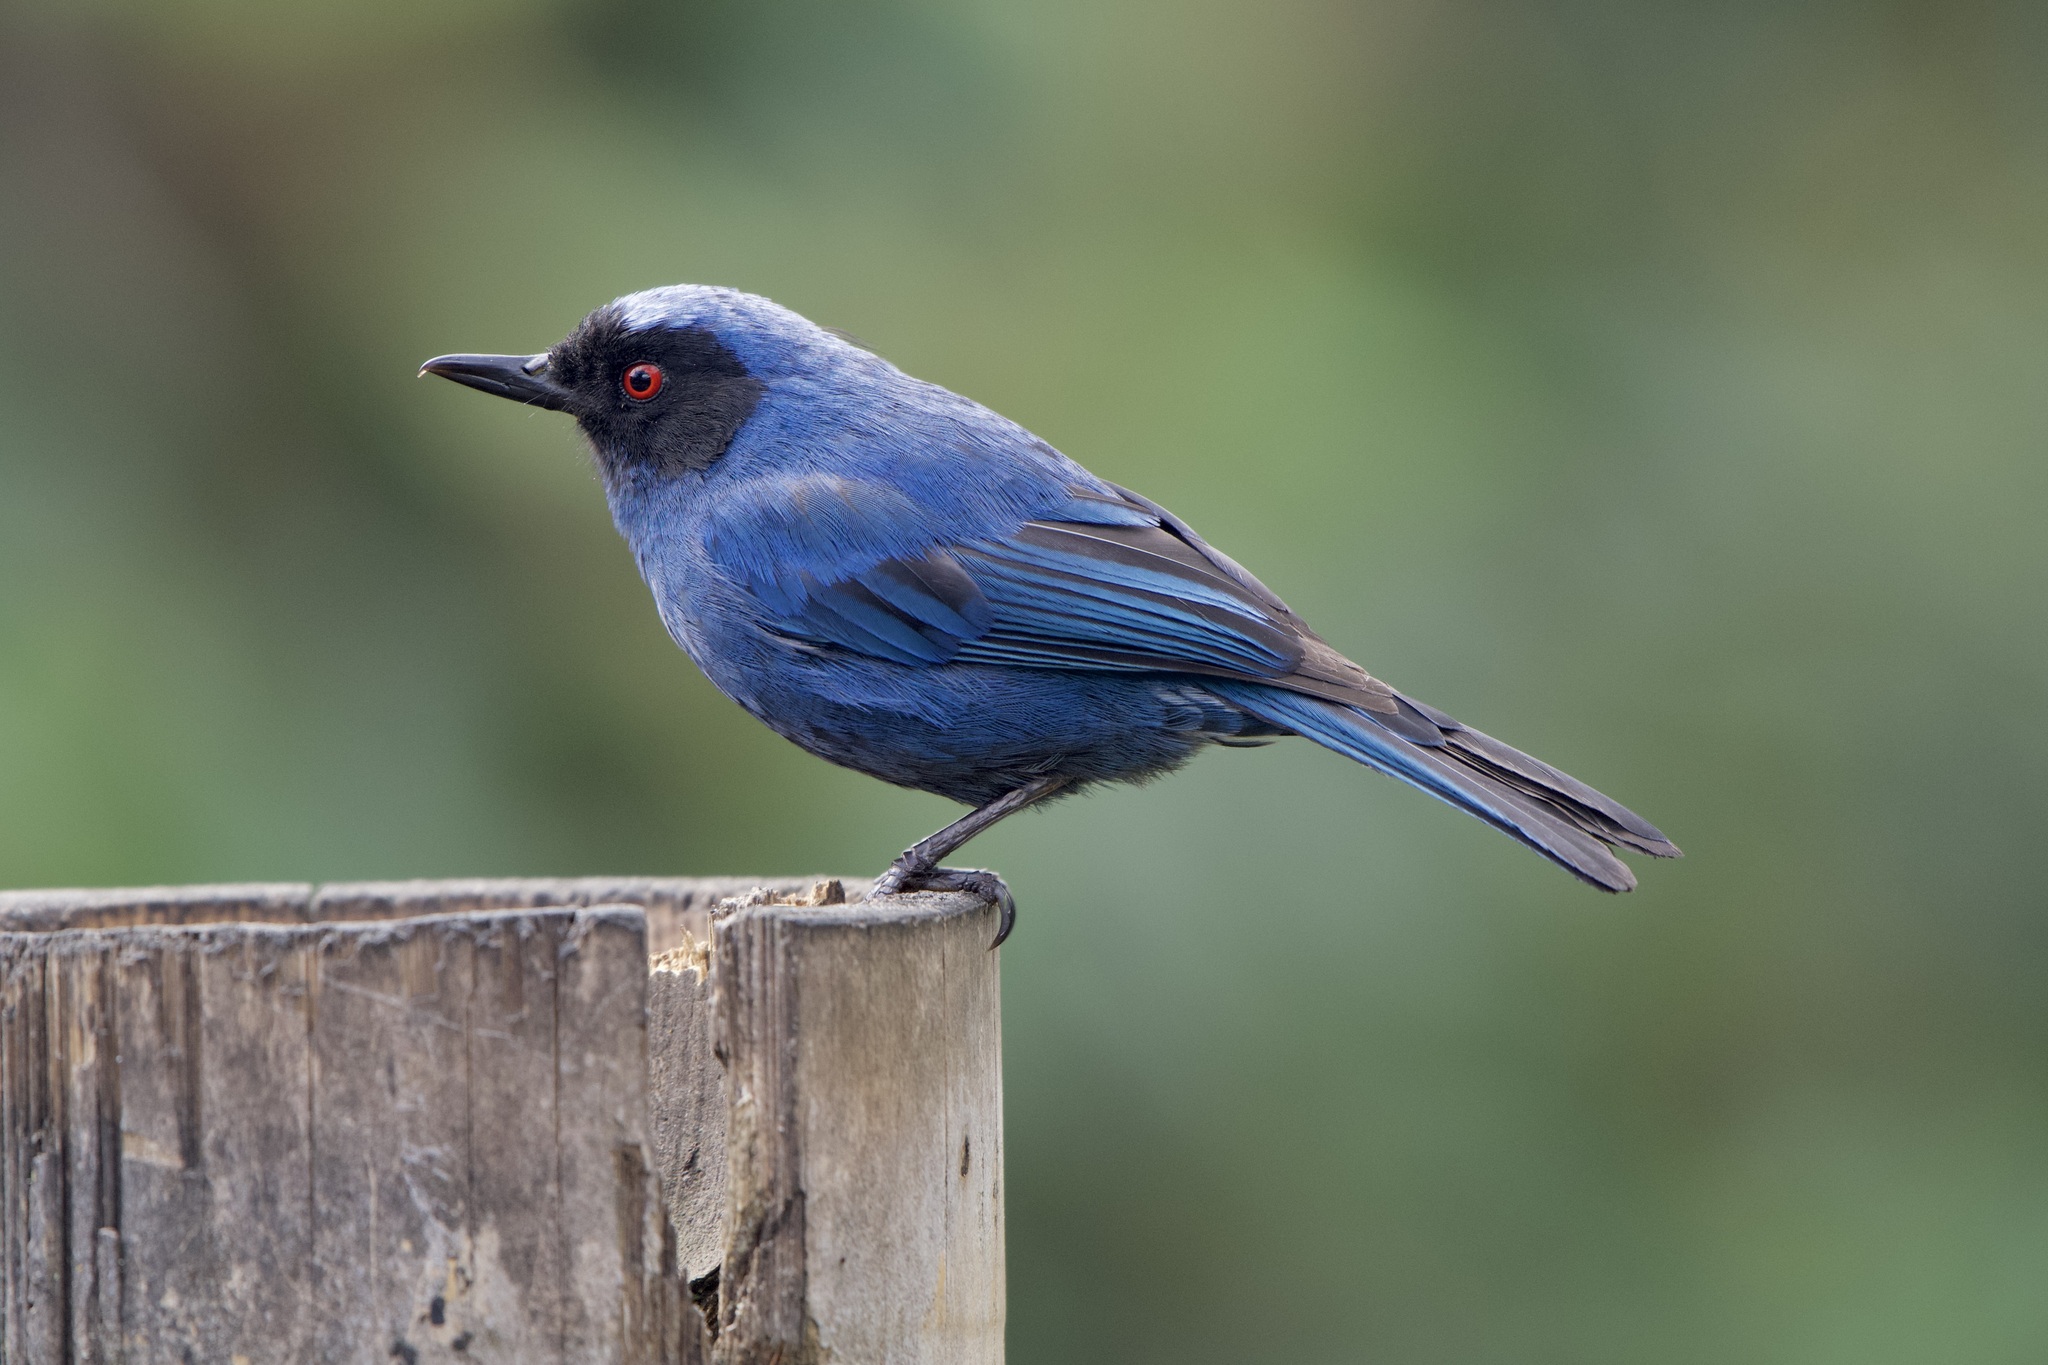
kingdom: Animalia
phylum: Chordata
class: Aves
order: Passeriformes
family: Thraupidae
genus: Diglossa
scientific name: Diglossa cyanea
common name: Masked flowerpiercer
